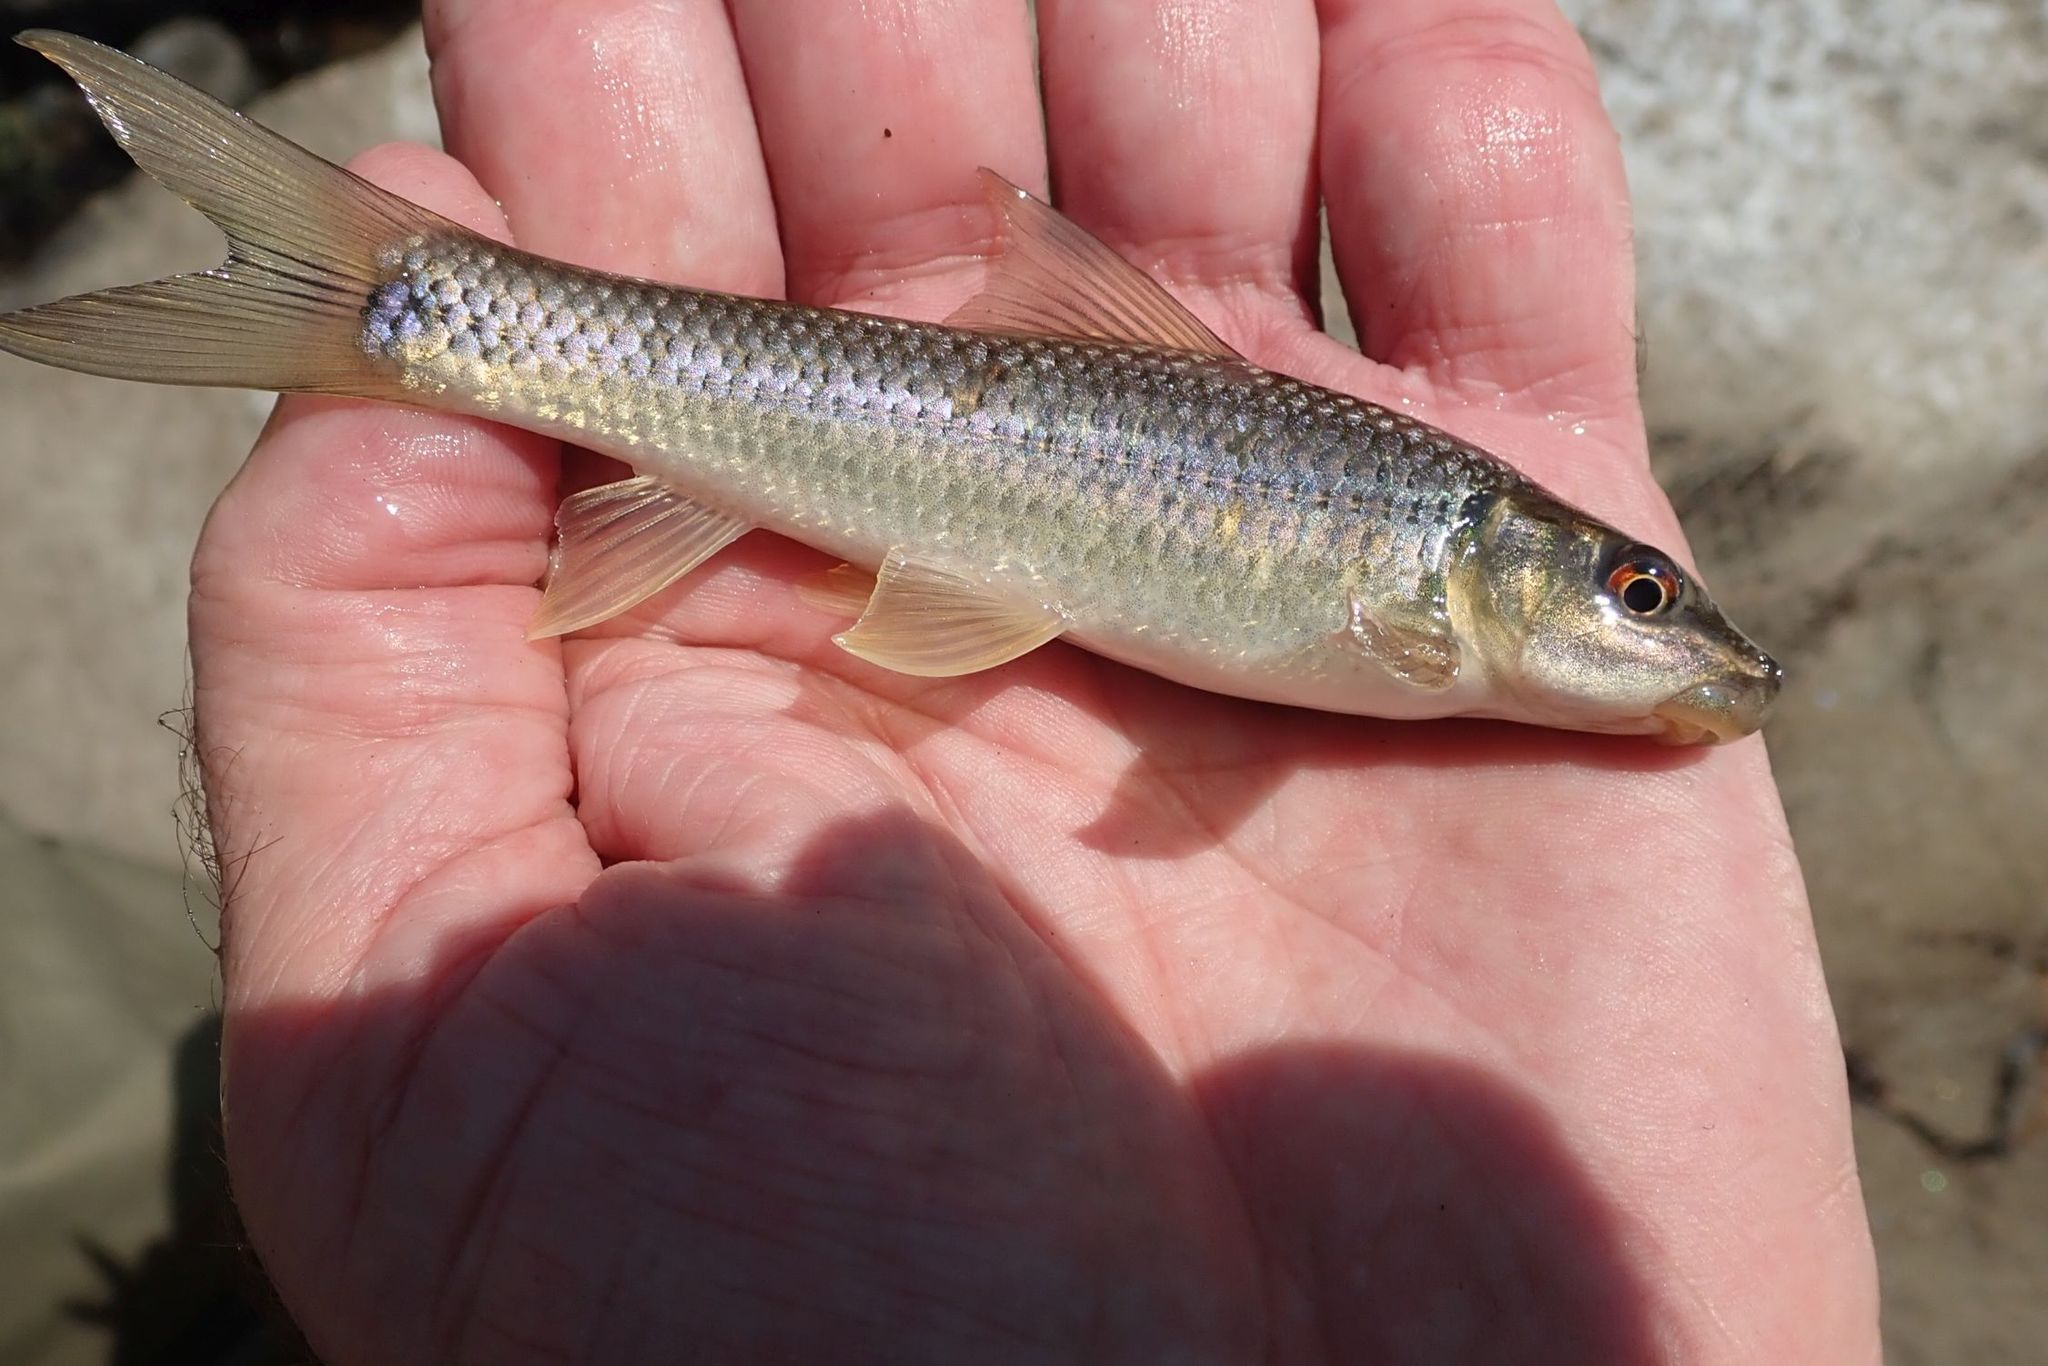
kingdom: Animalia
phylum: Chordata
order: Cypriniformes
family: Cyprinidae
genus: Labeo
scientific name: Labeo cylindricus
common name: Redeye labeo
